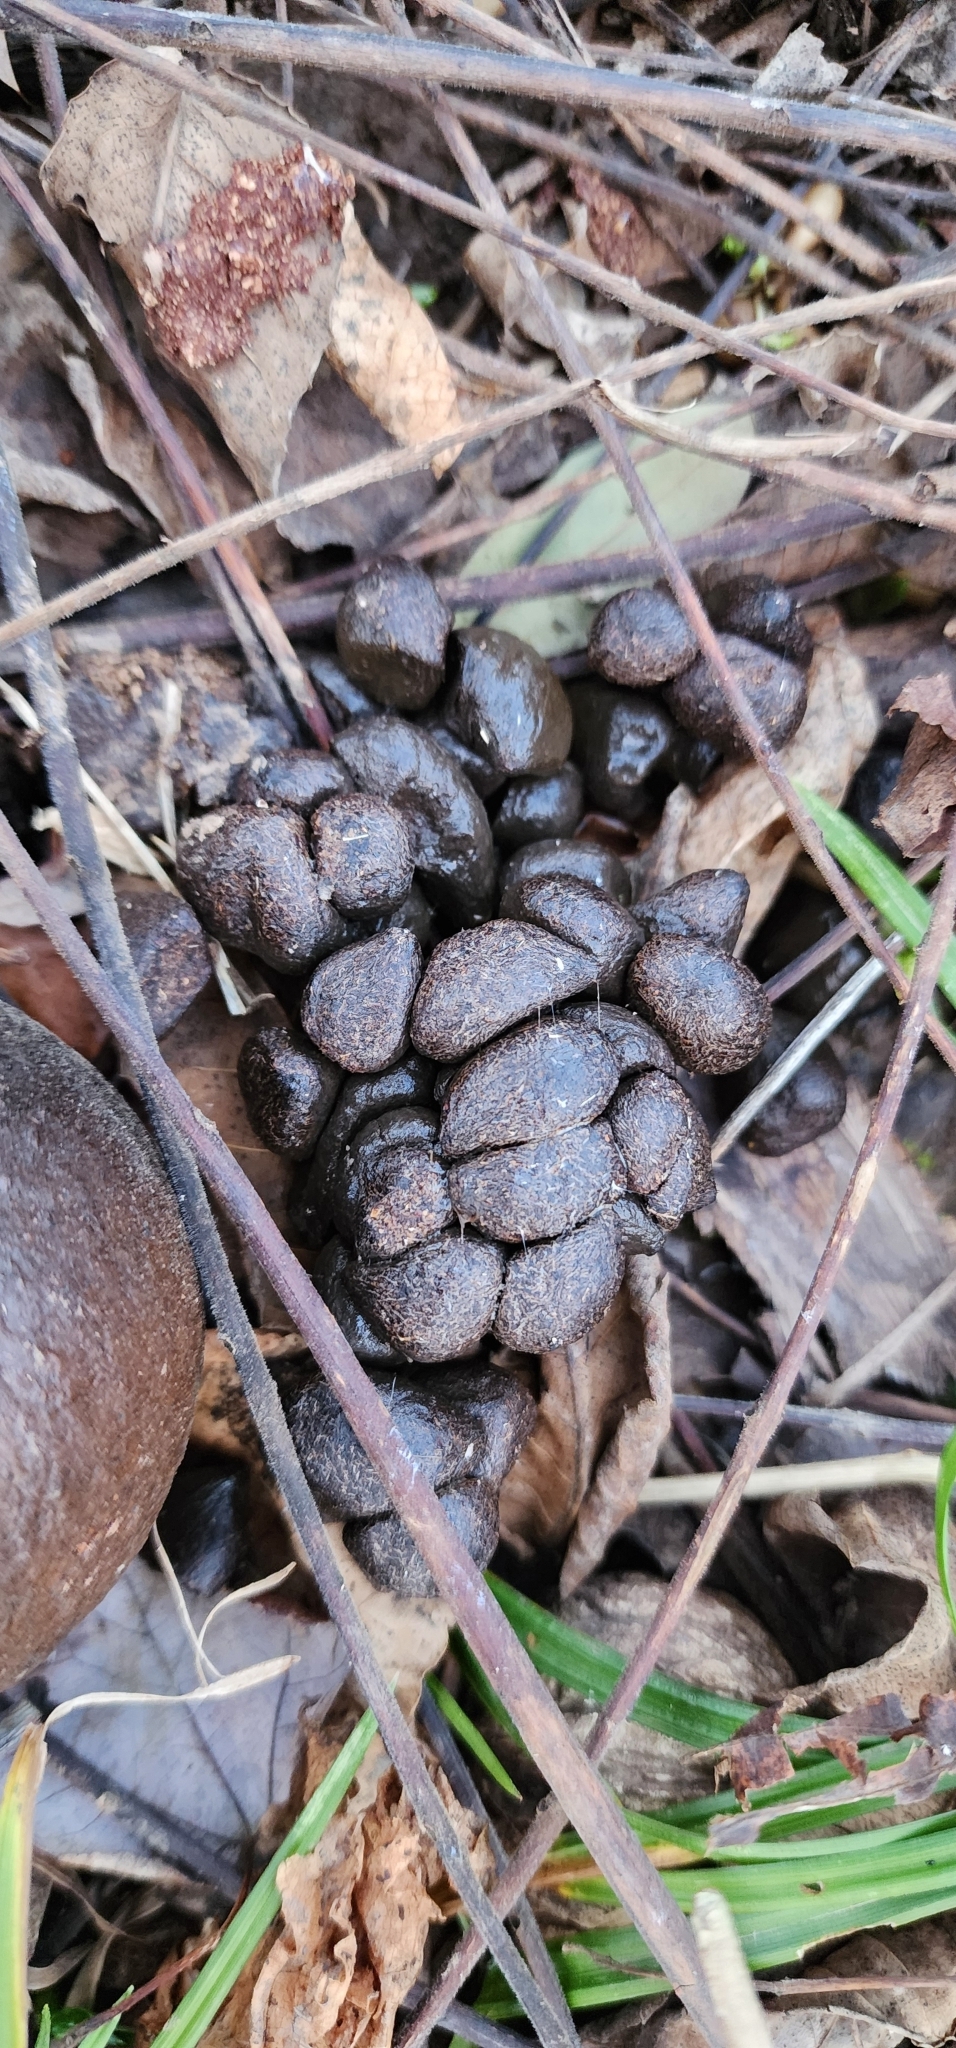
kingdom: Animalia
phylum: Chordata
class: Mammalia
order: Artiodactyla
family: Cervidae
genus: Odocoileus
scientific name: Odocoileus virginianus
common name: White-tailed deer
